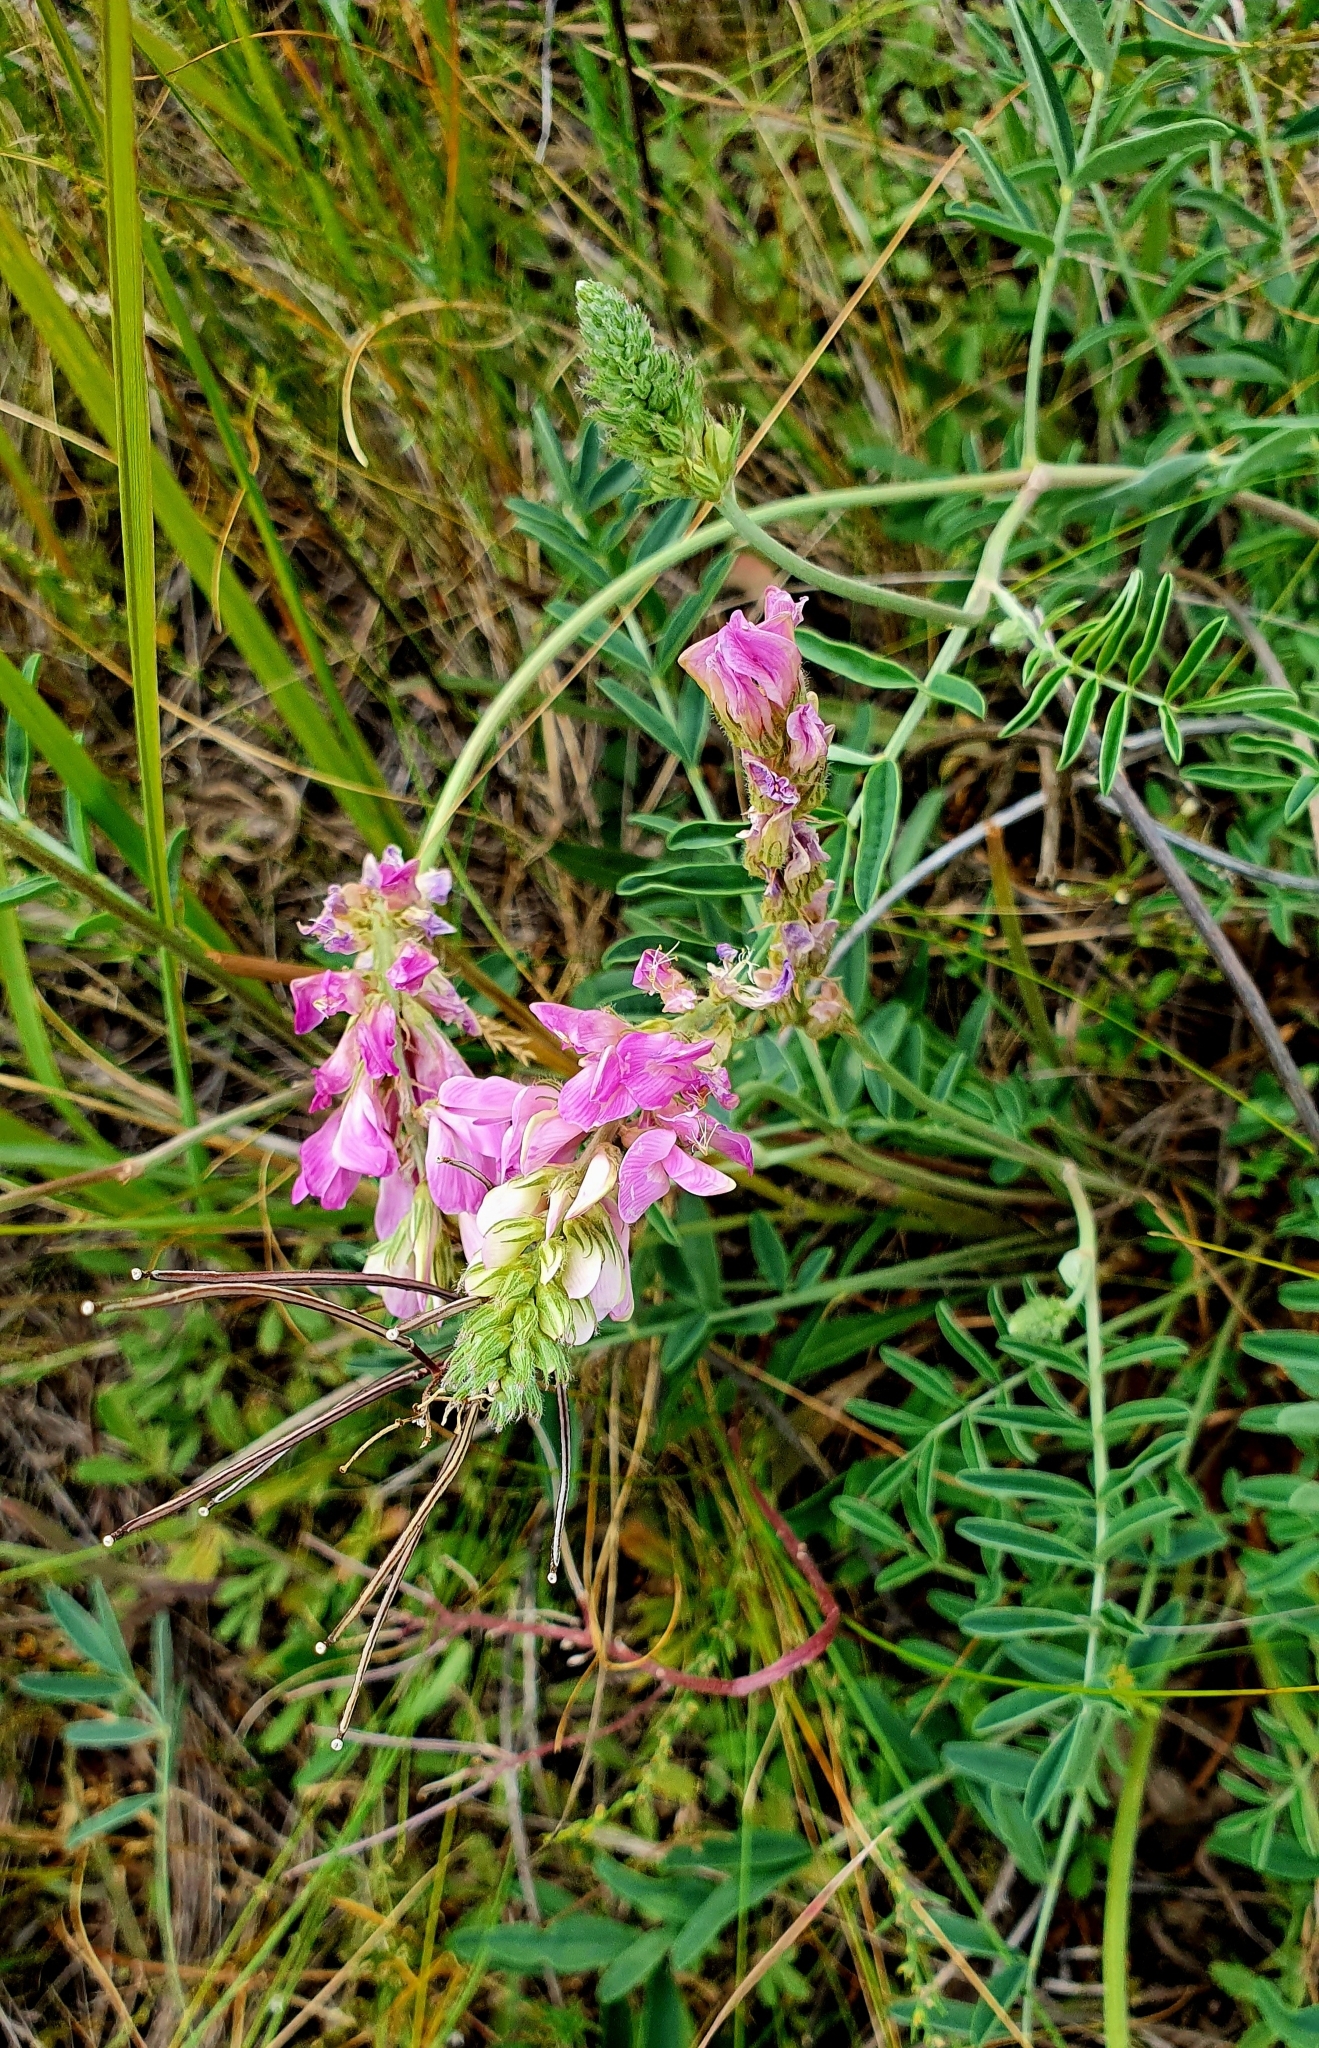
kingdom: Plantae
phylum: Tracheophyta
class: Magnoliopsida
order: Fabales
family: Fabaceae
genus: Hedysarum
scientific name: Hedysarum gmelinii
